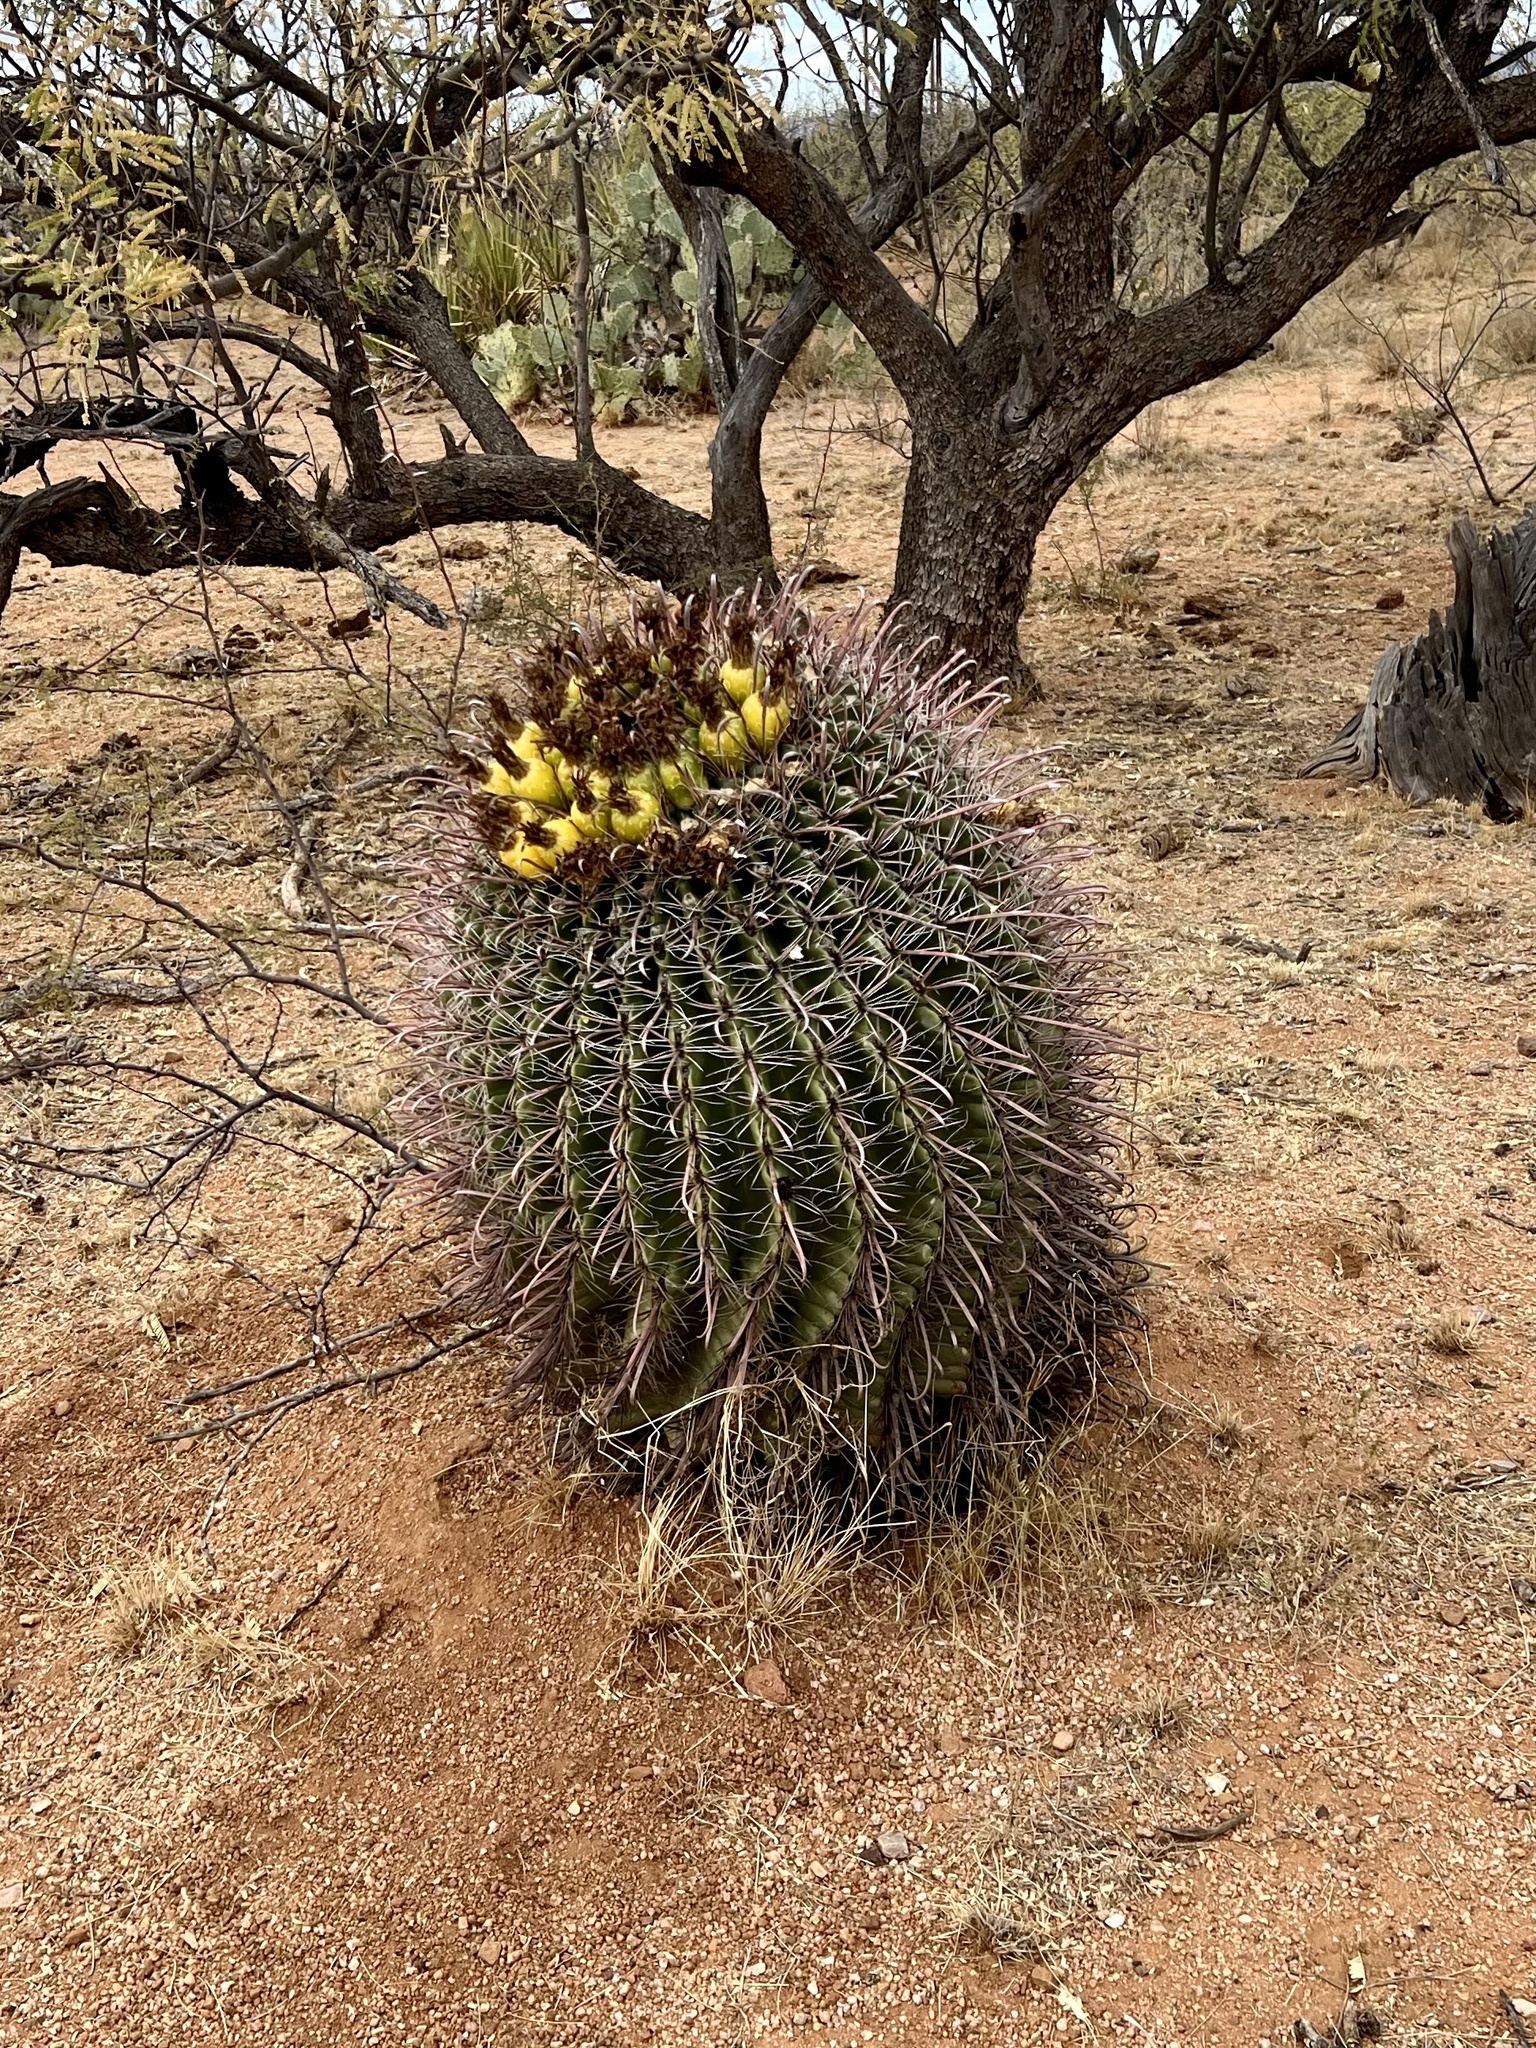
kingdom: Plantae
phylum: Tracheophyta
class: Magnoliopsida
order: Caryophyllales
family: Cactaceae
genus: Ferocactus
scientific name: Ferocactus wislizeni
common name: Candy barrel cactus
